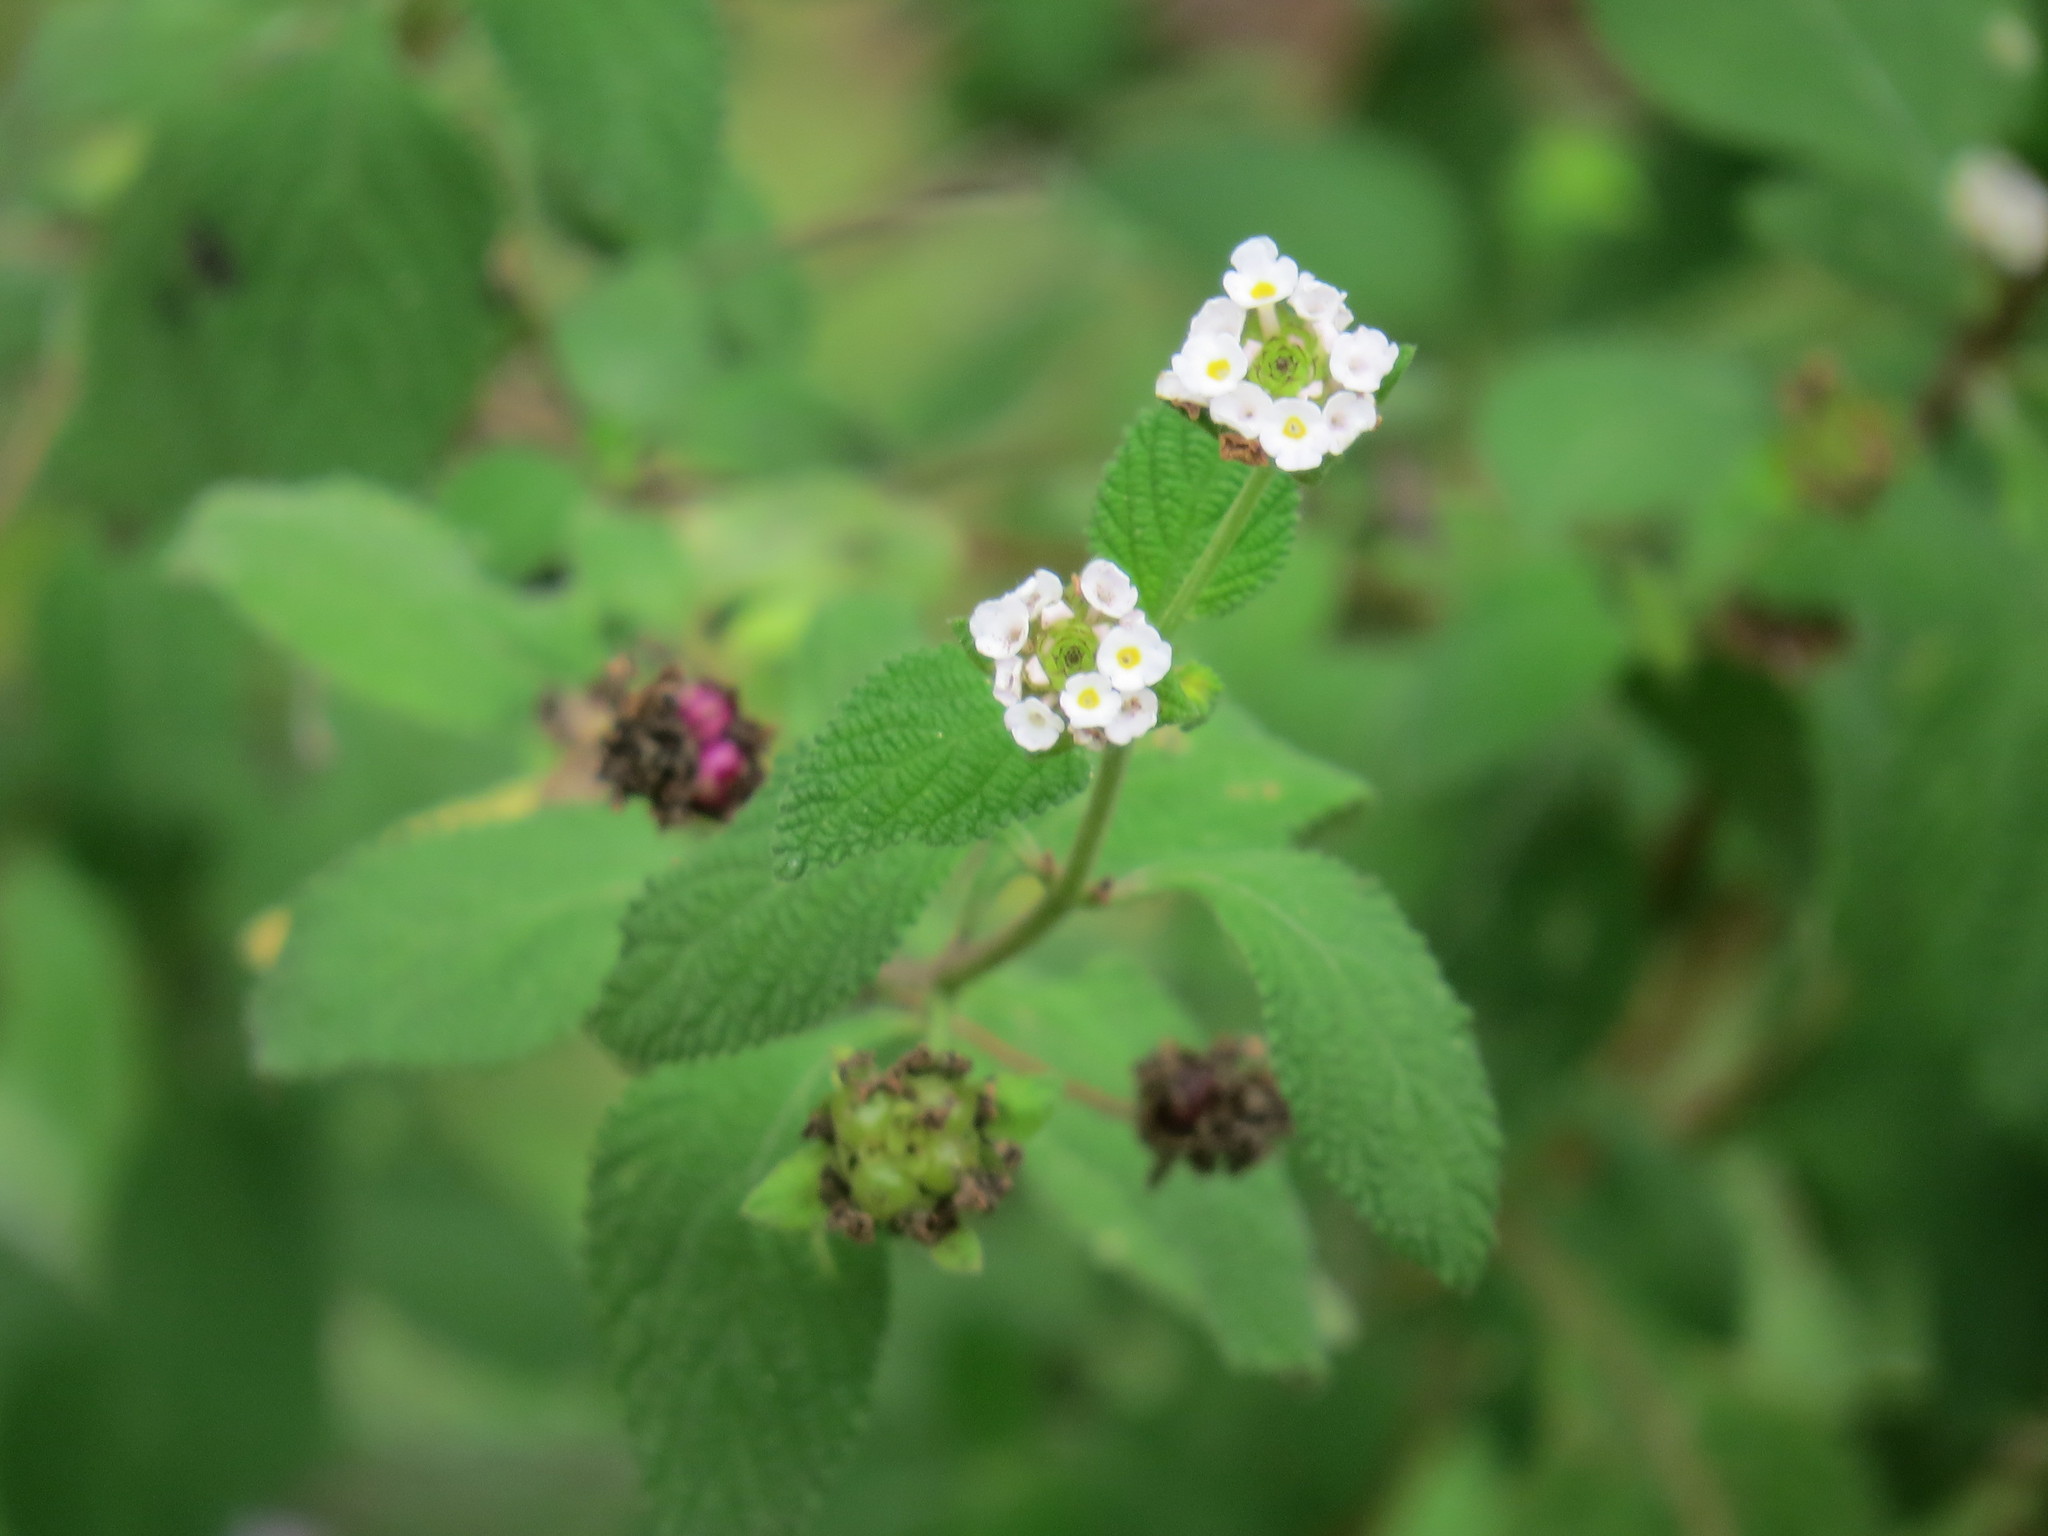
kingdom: Plantae
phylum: Tracheophyta
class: Magnoliopsida
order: Lamiales
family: Verbenaceae
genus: Lantana
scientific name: Lantana velutina
